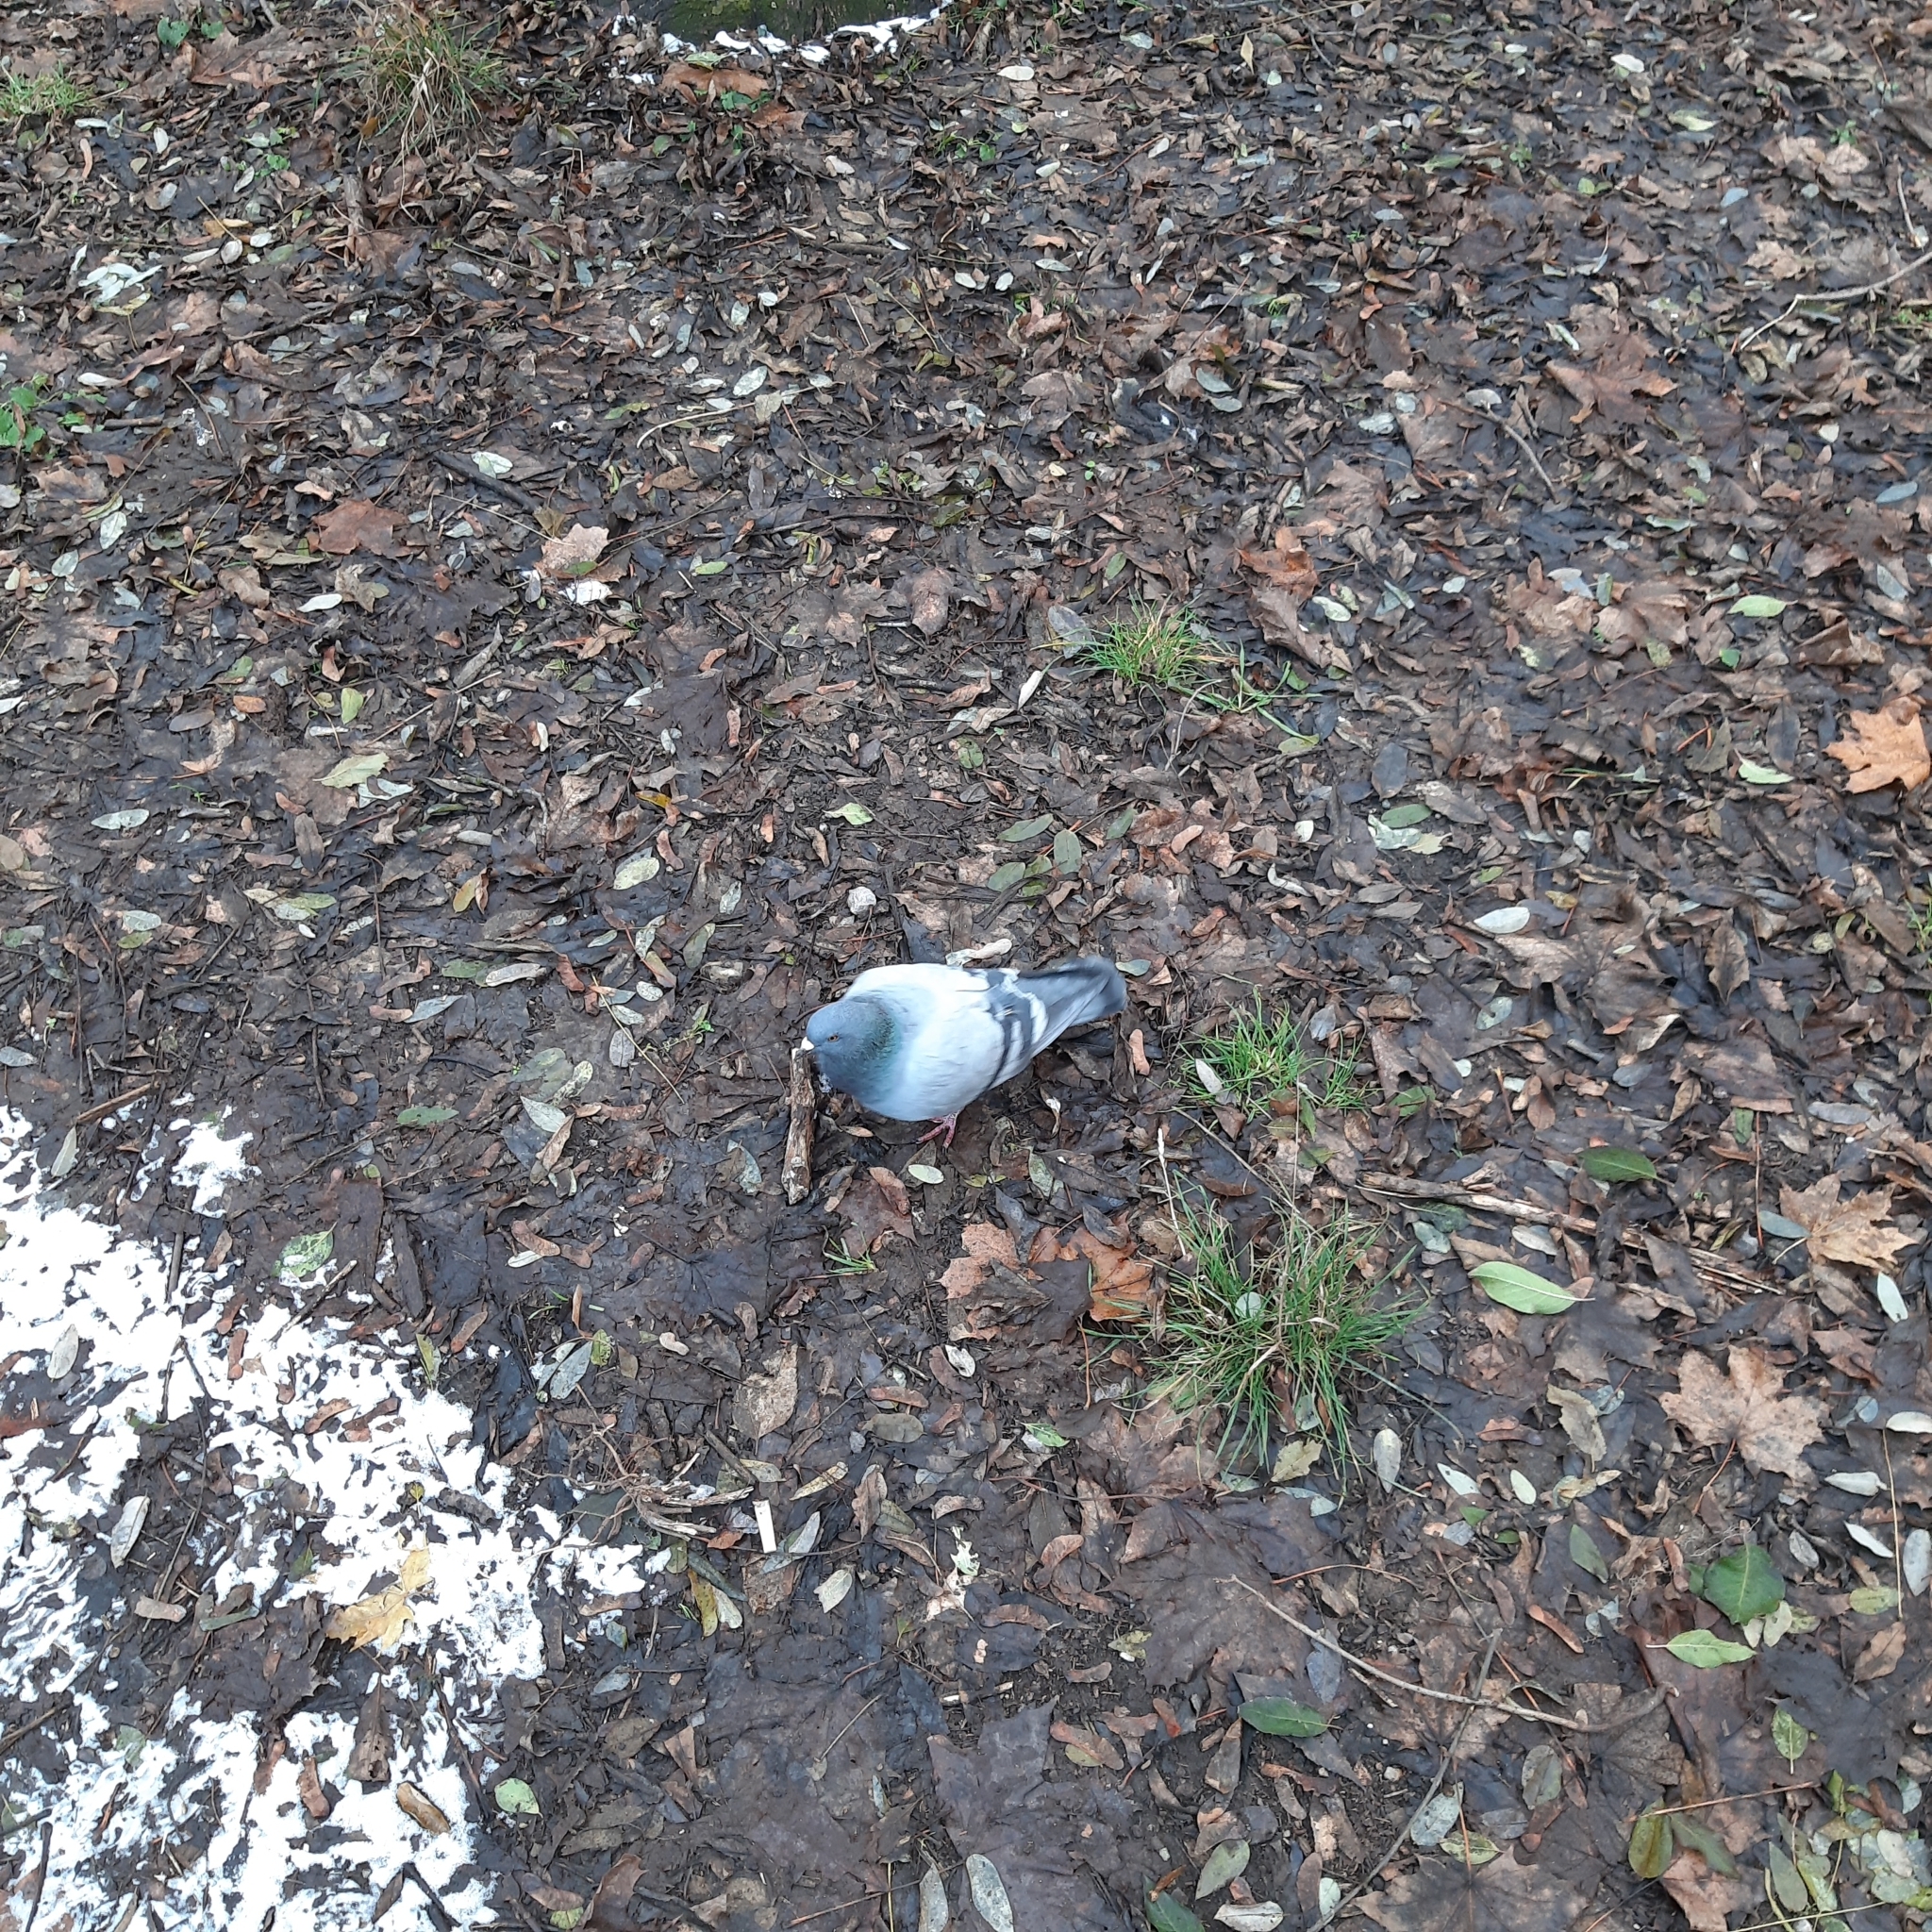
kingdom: Animalia
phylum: Chordata
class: Aves
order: Columbiformes
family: Columbidae
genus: Columba
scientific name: Columba livia
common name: Rock pigeon
